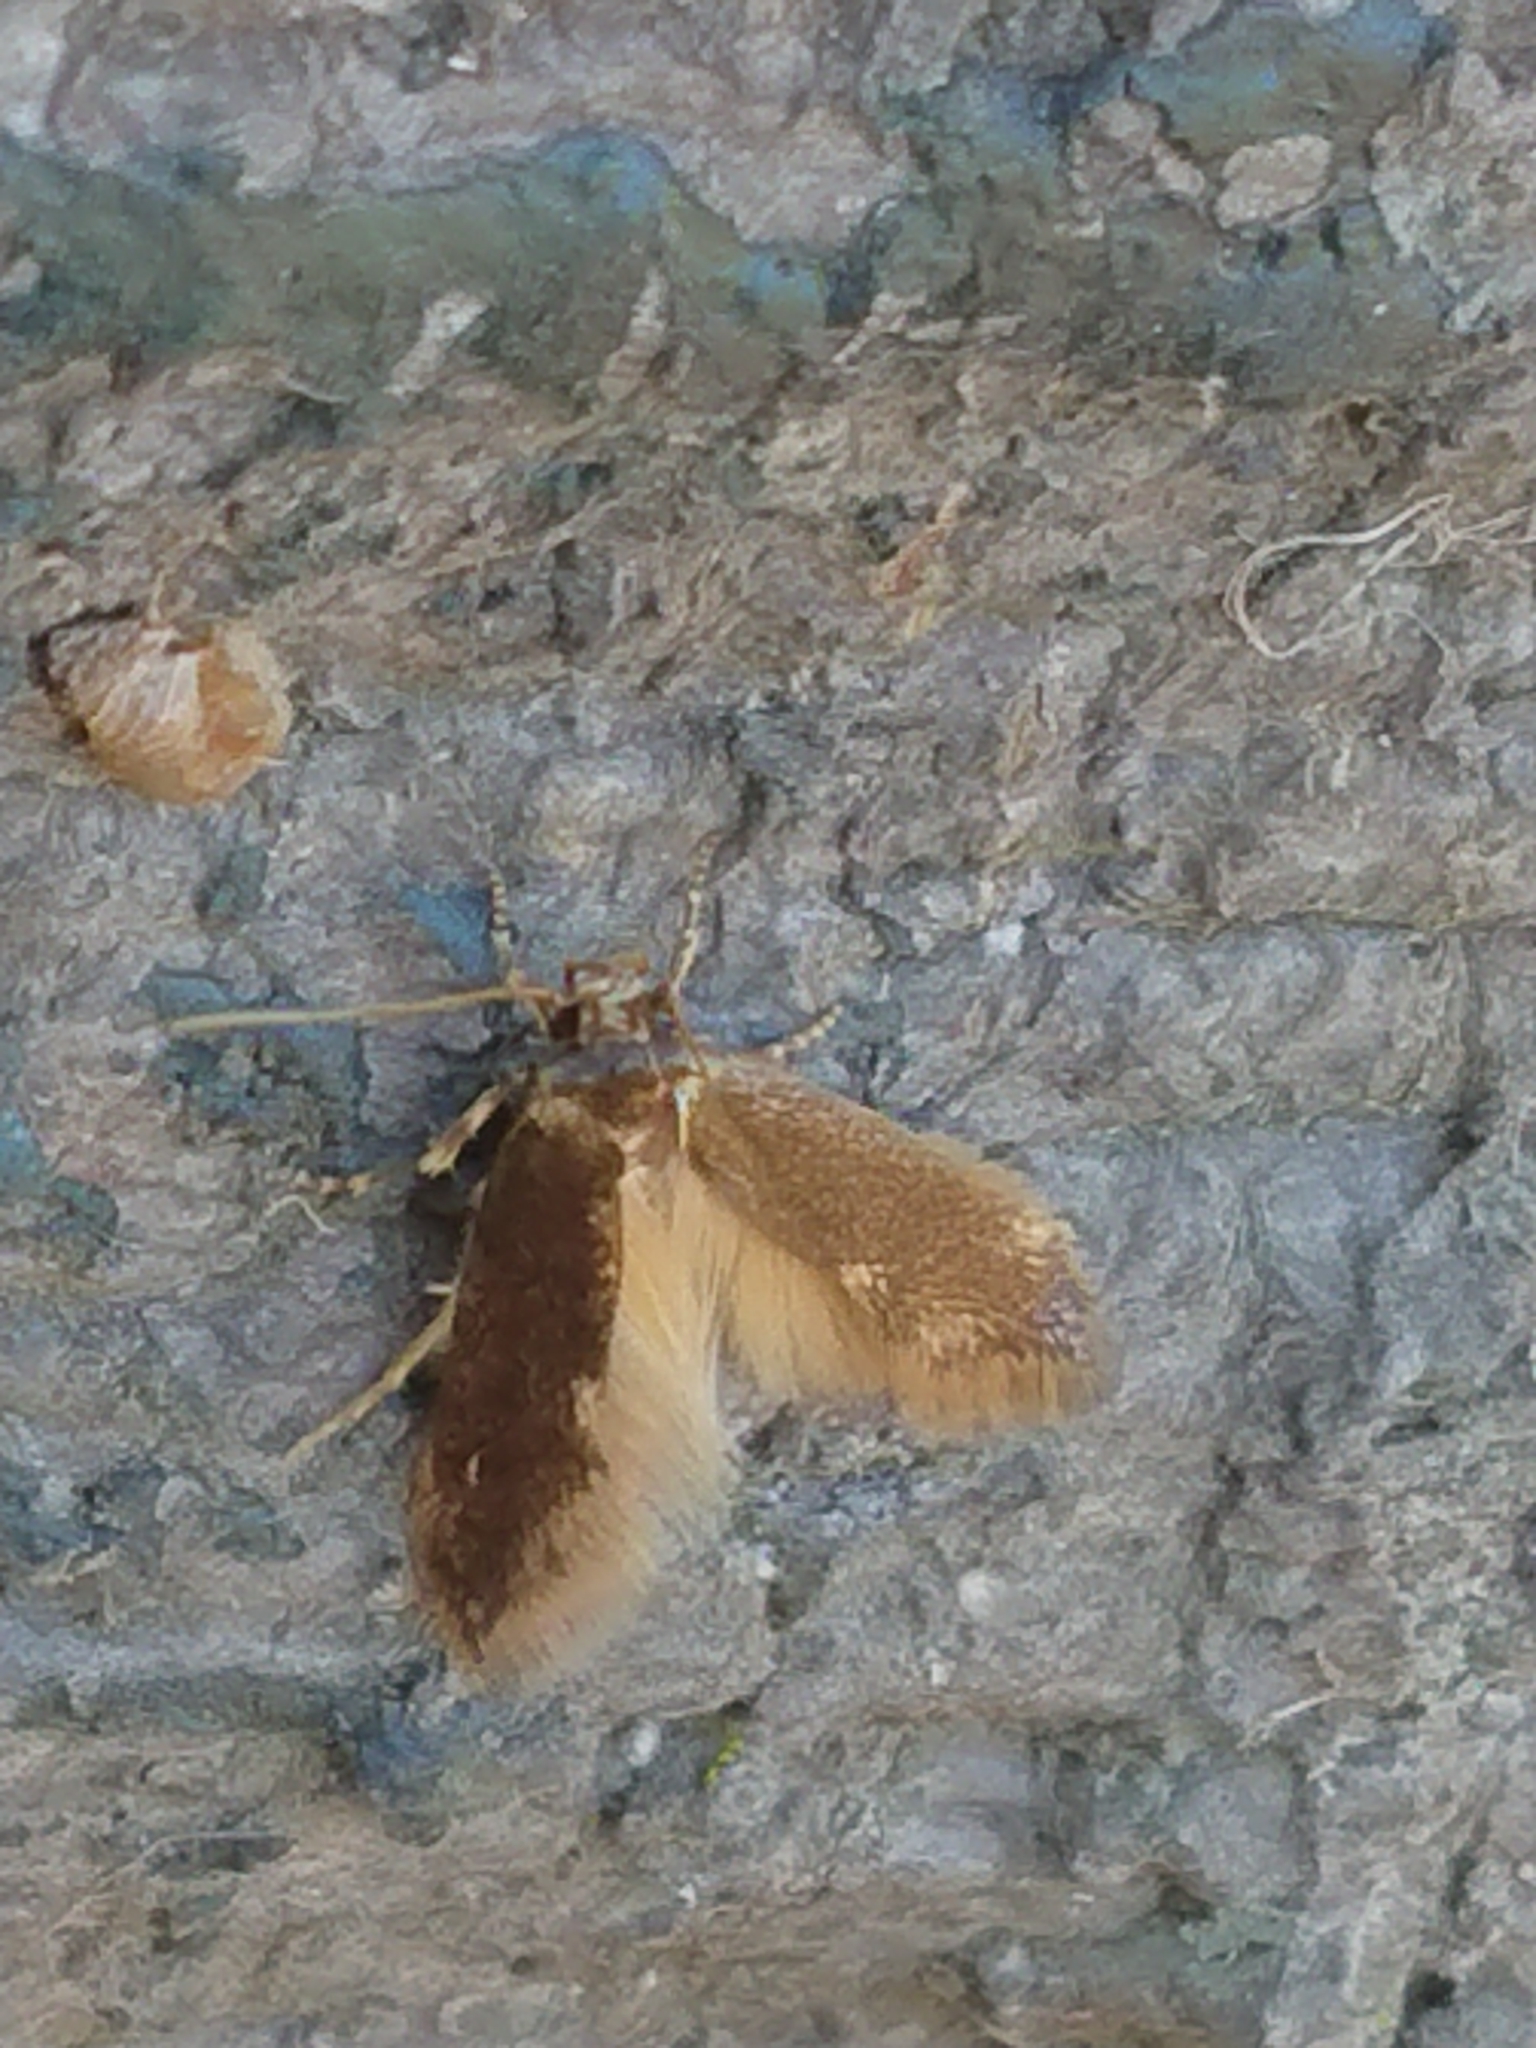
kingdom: Animalia
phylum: Arthropoda
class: Insecta
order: Lepidoptera
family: Tineidae
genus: Opogona
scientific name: Opogona omoscopa
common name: Moth
